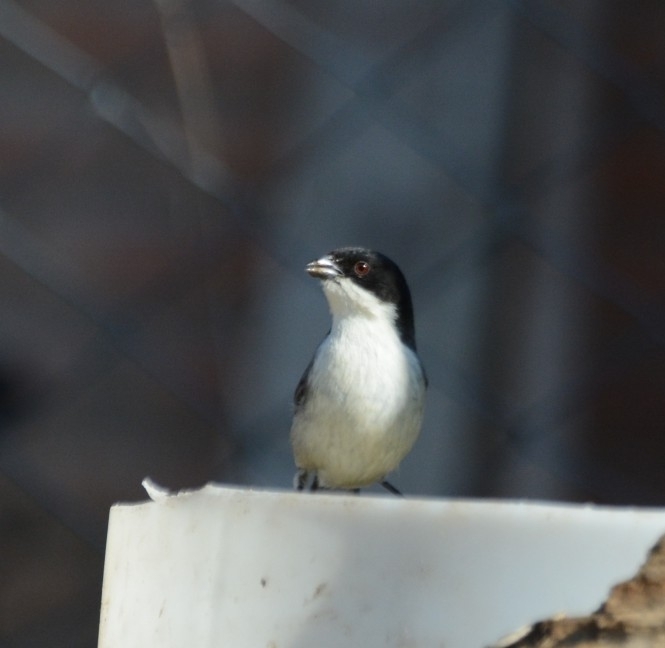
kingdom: Animalia
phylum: Chordata
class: Aves
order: Passeriformes
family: Thraupidae
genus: Microspingus
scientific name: Microspingus melanoleucus
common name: Black-capped warbling-finch
